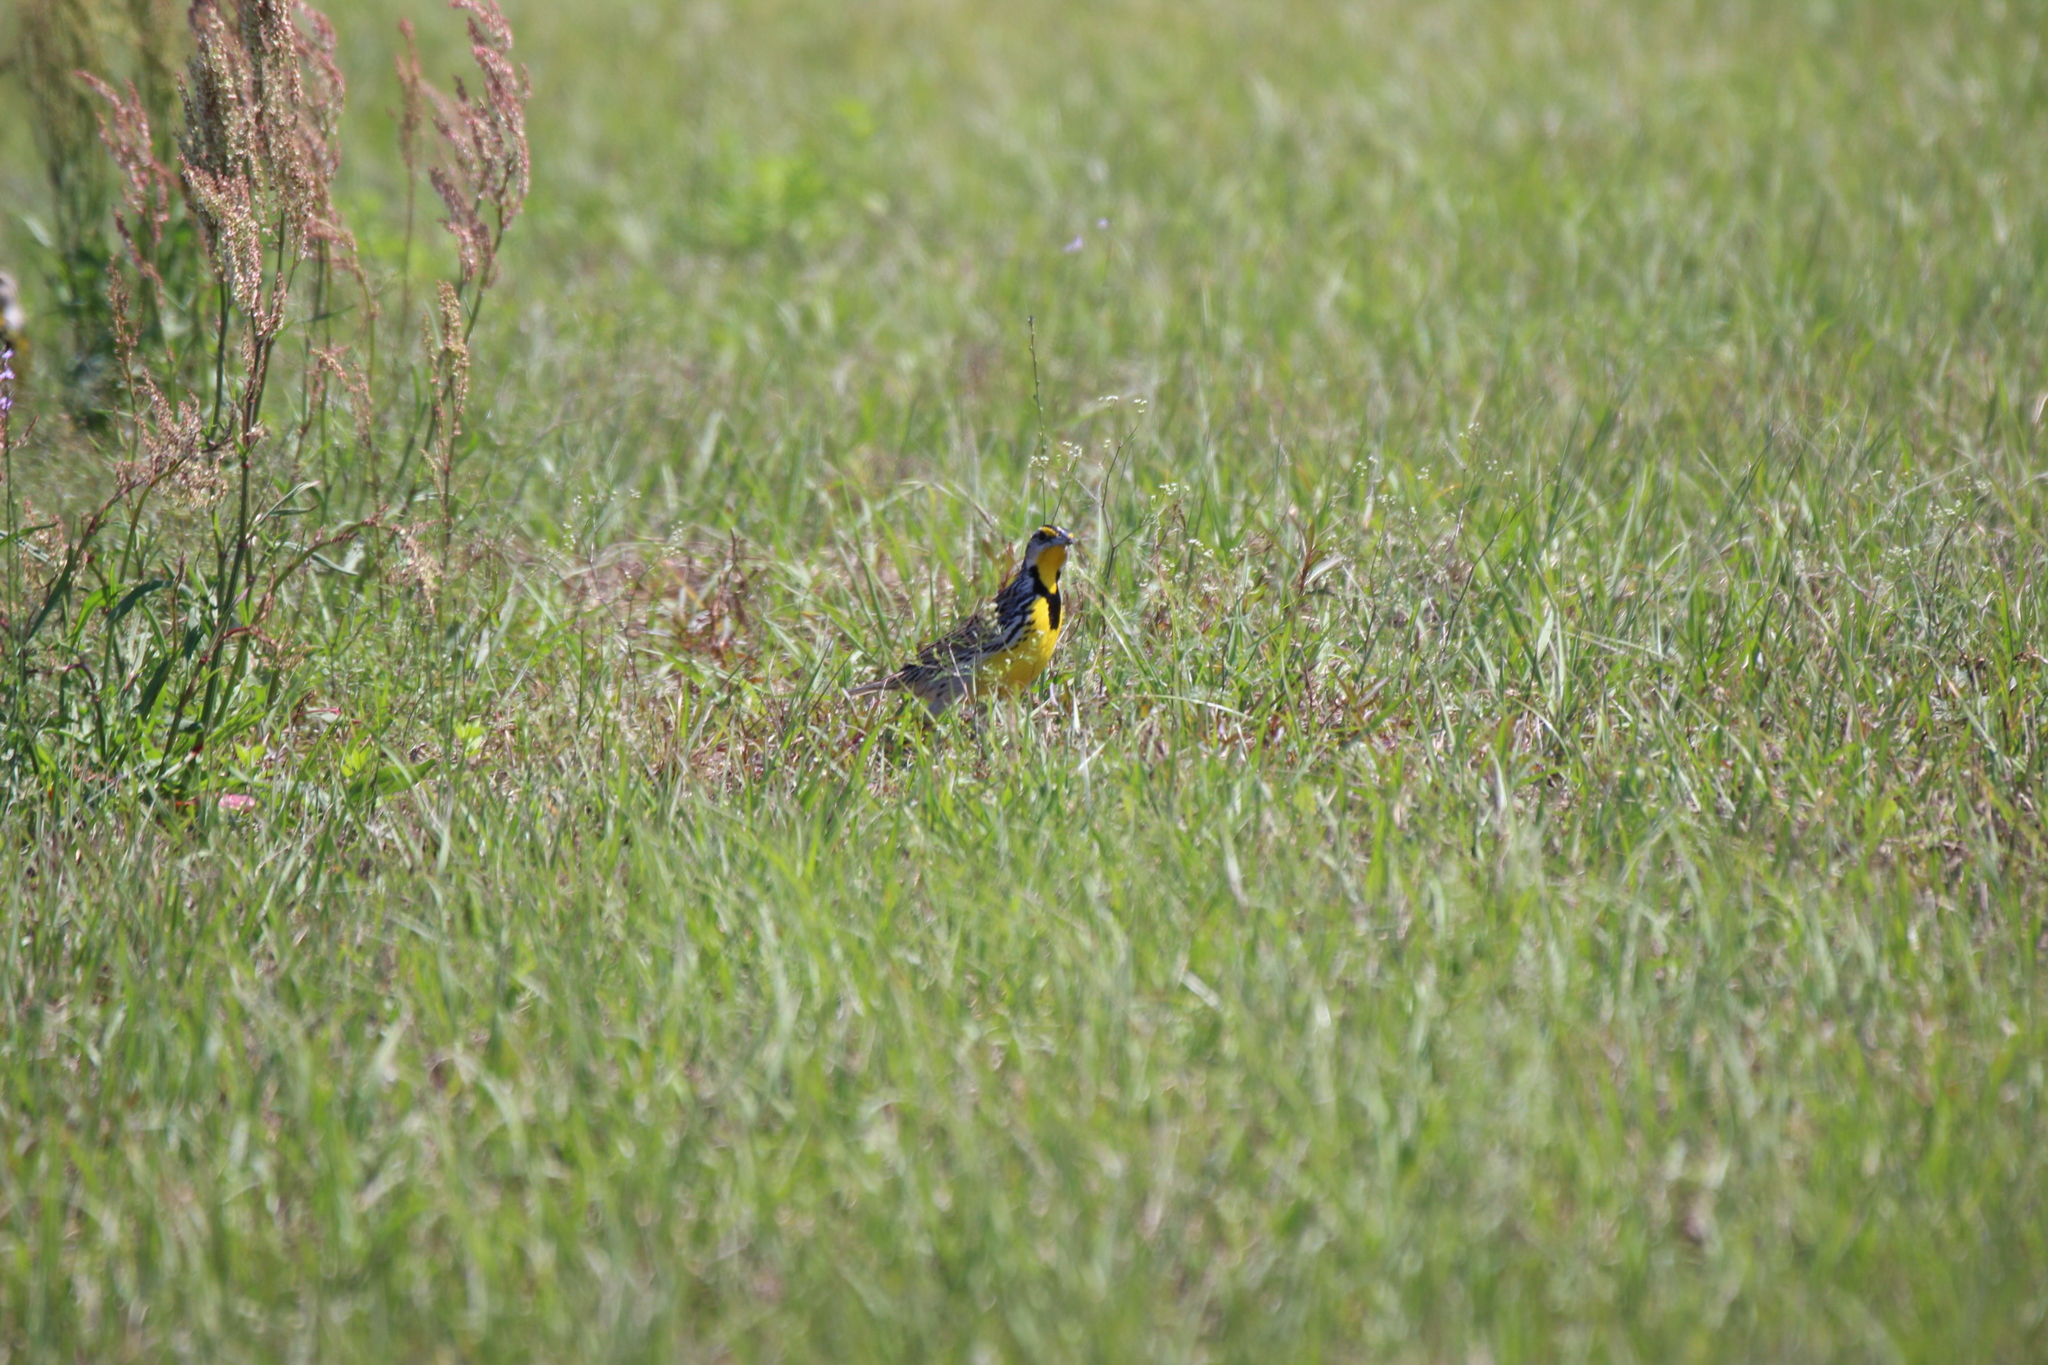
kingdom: Animalia
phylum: Chordata
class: Aves
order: Passeriformes
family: Icteridae
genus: Sturnella
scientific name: Sturnella magna
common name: Eastern meadowlark
